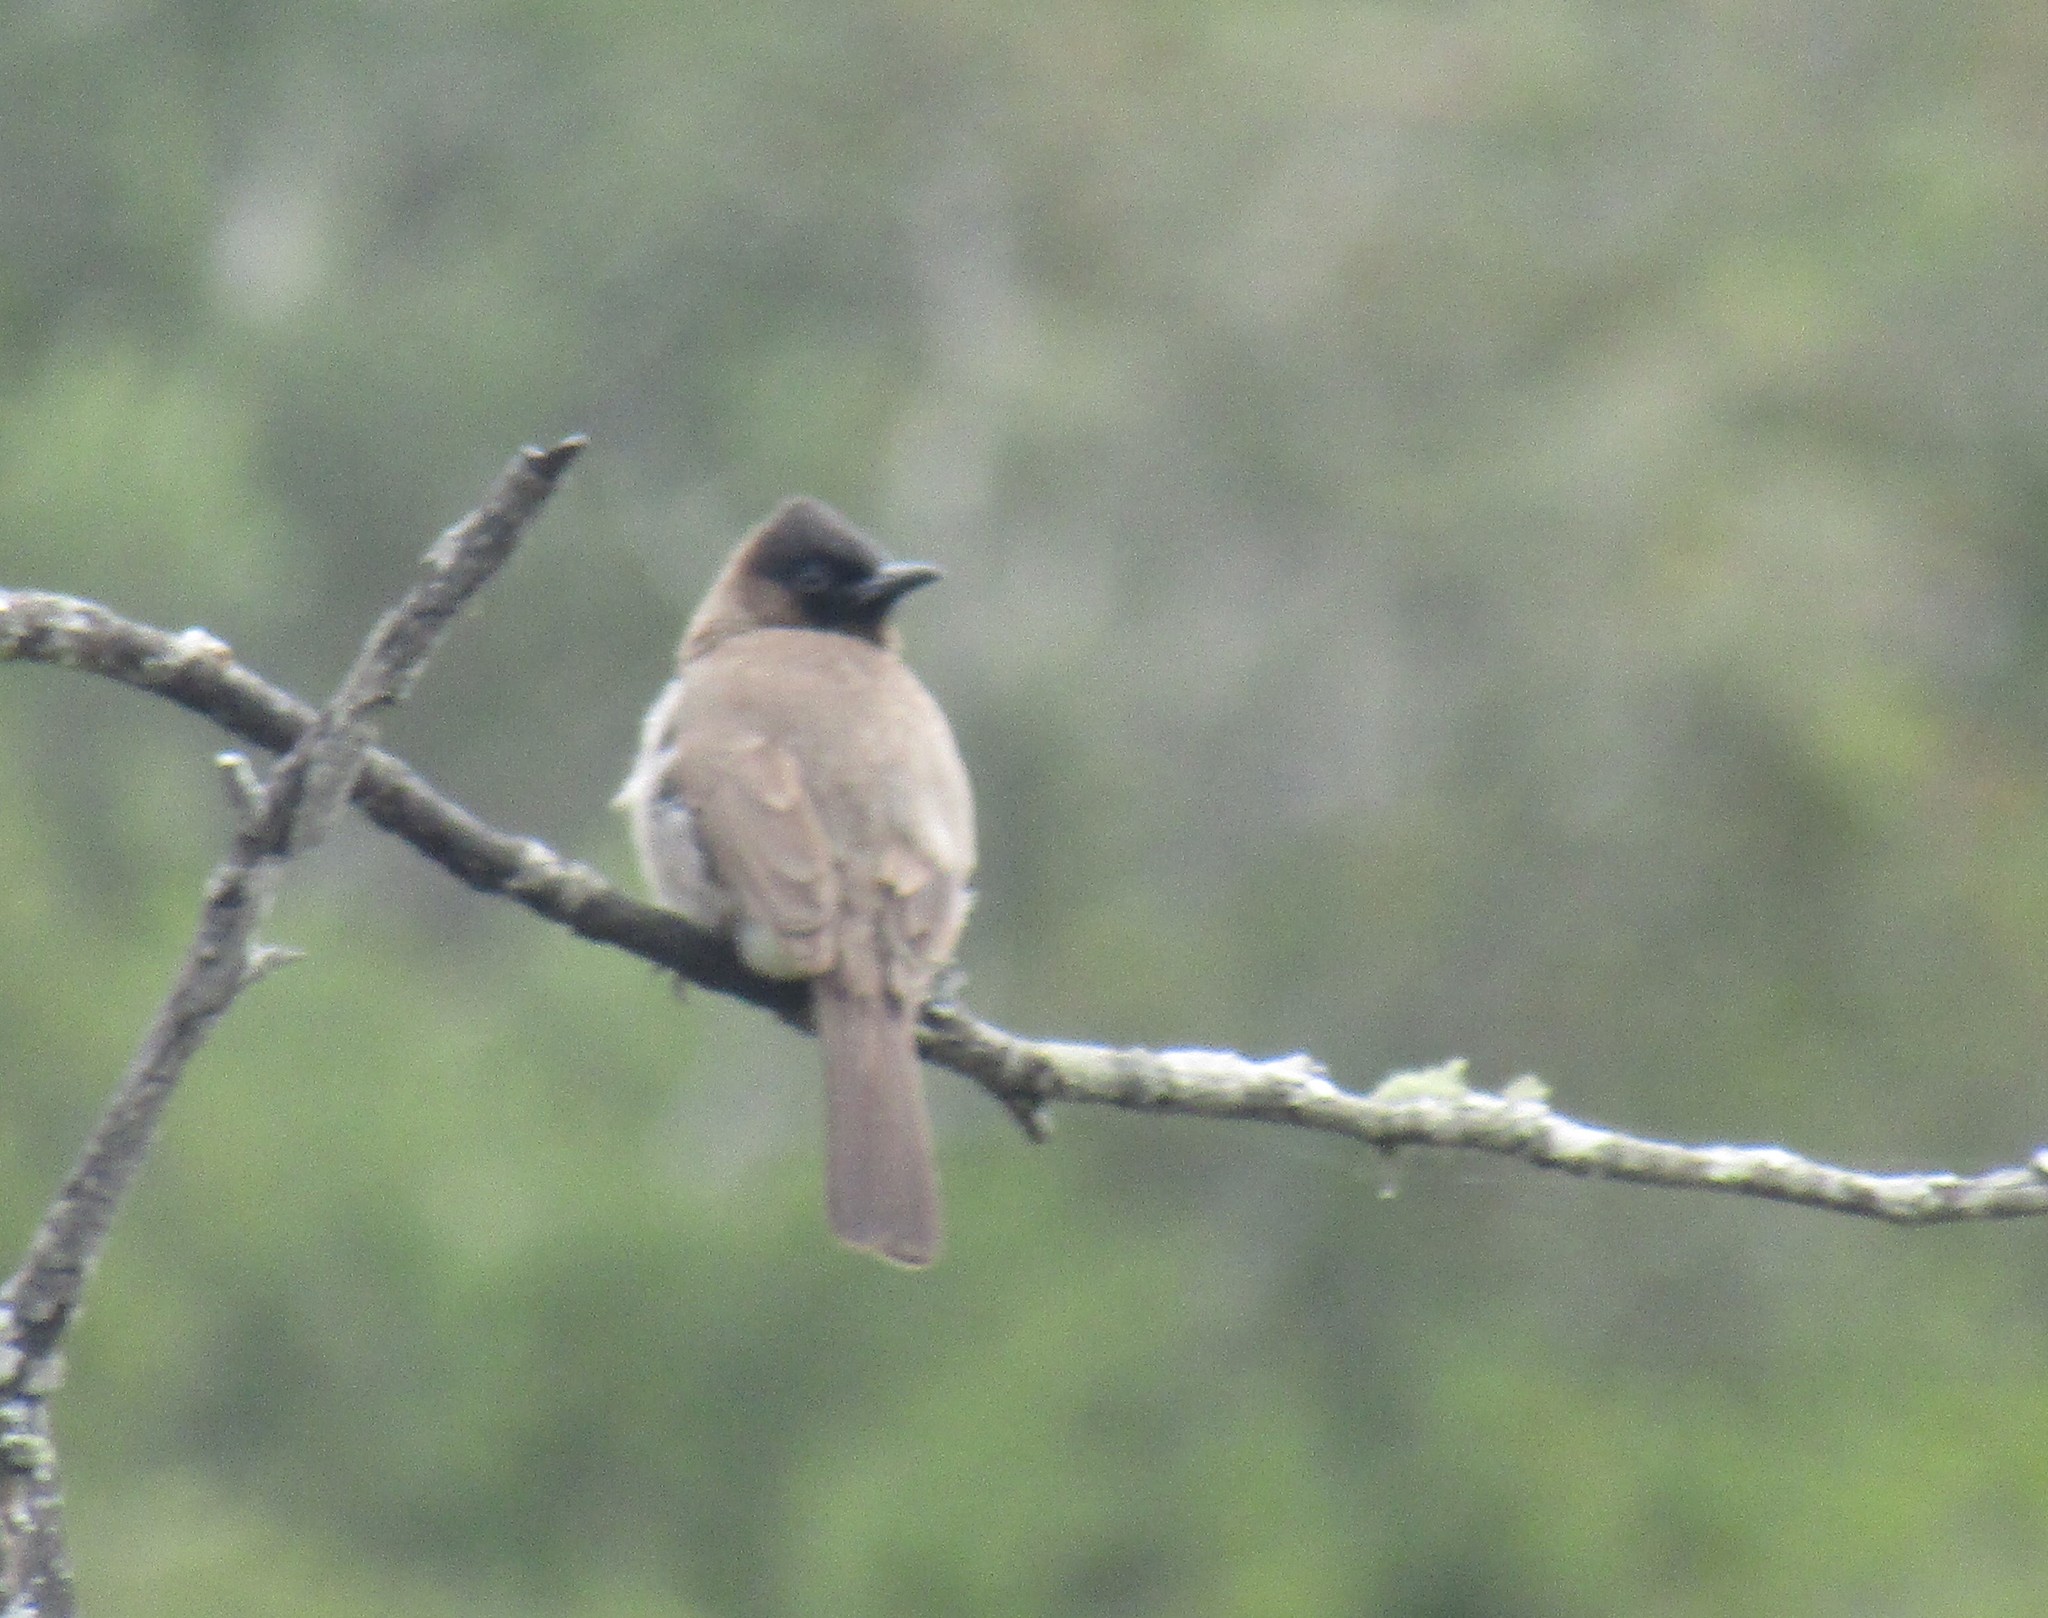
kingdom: Animalia
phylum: Chordata
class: Aves
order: Passeriformes
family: Pycnonotidae
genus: Pycnonotus
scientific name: Pycnonotus barbatus
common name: Common bulbul
